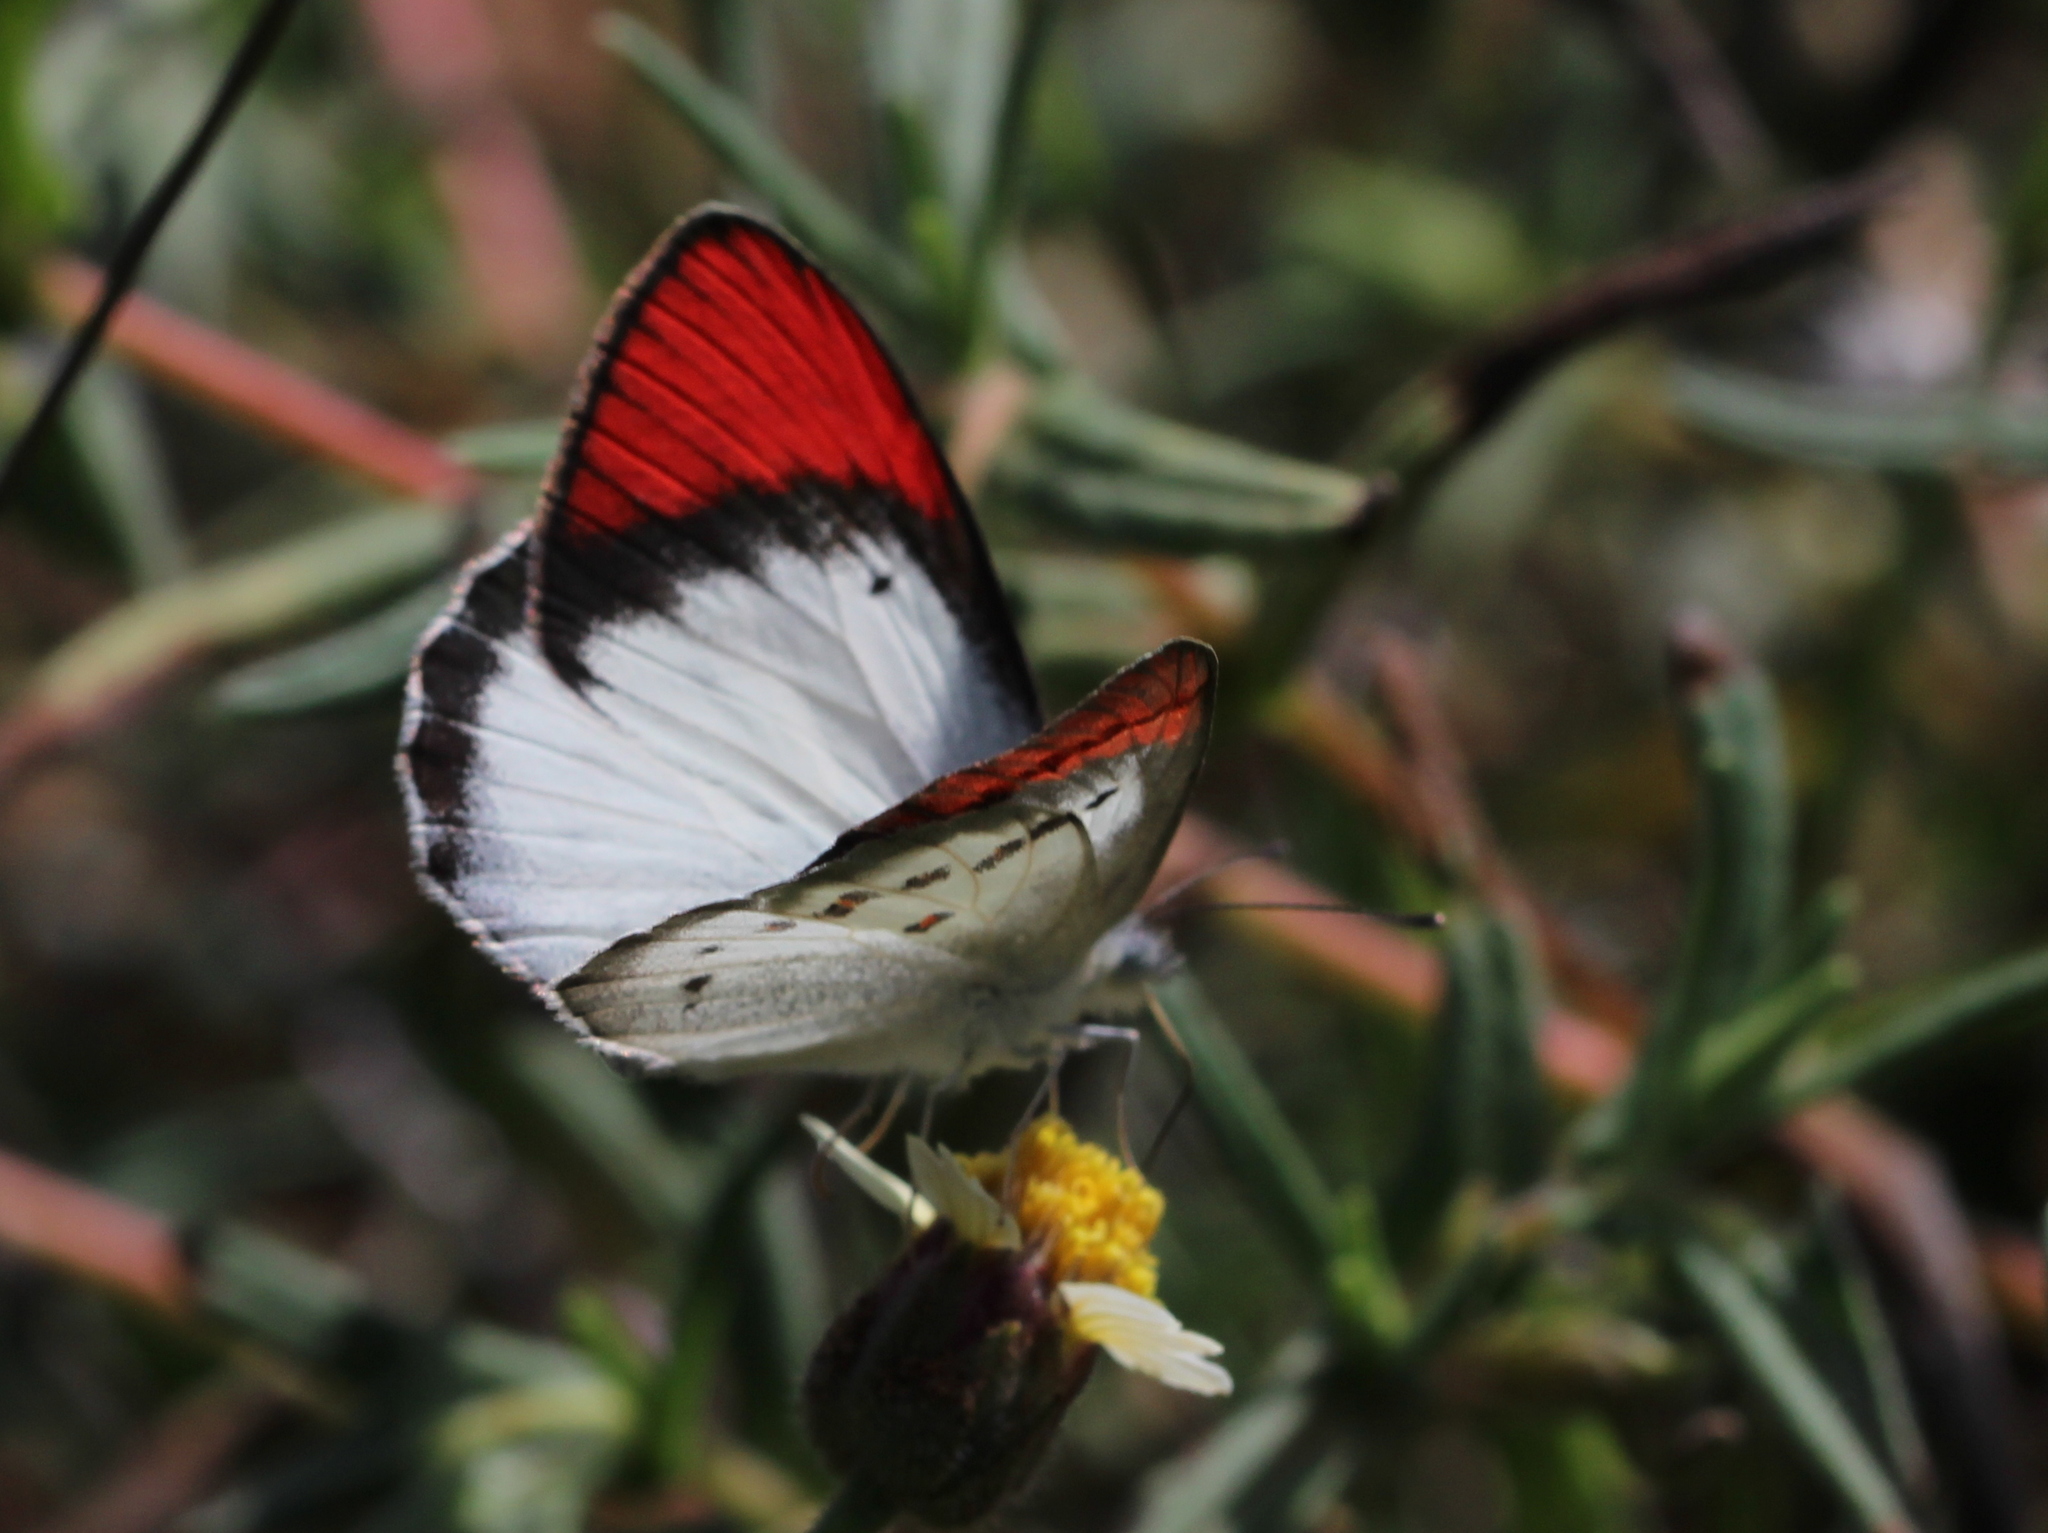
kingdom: Animalia
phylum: Arthropoda
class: Insecta
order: Lepidoptera
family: Pieridae
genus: Colotis
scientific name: Colotis danae
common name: Crimson tip
